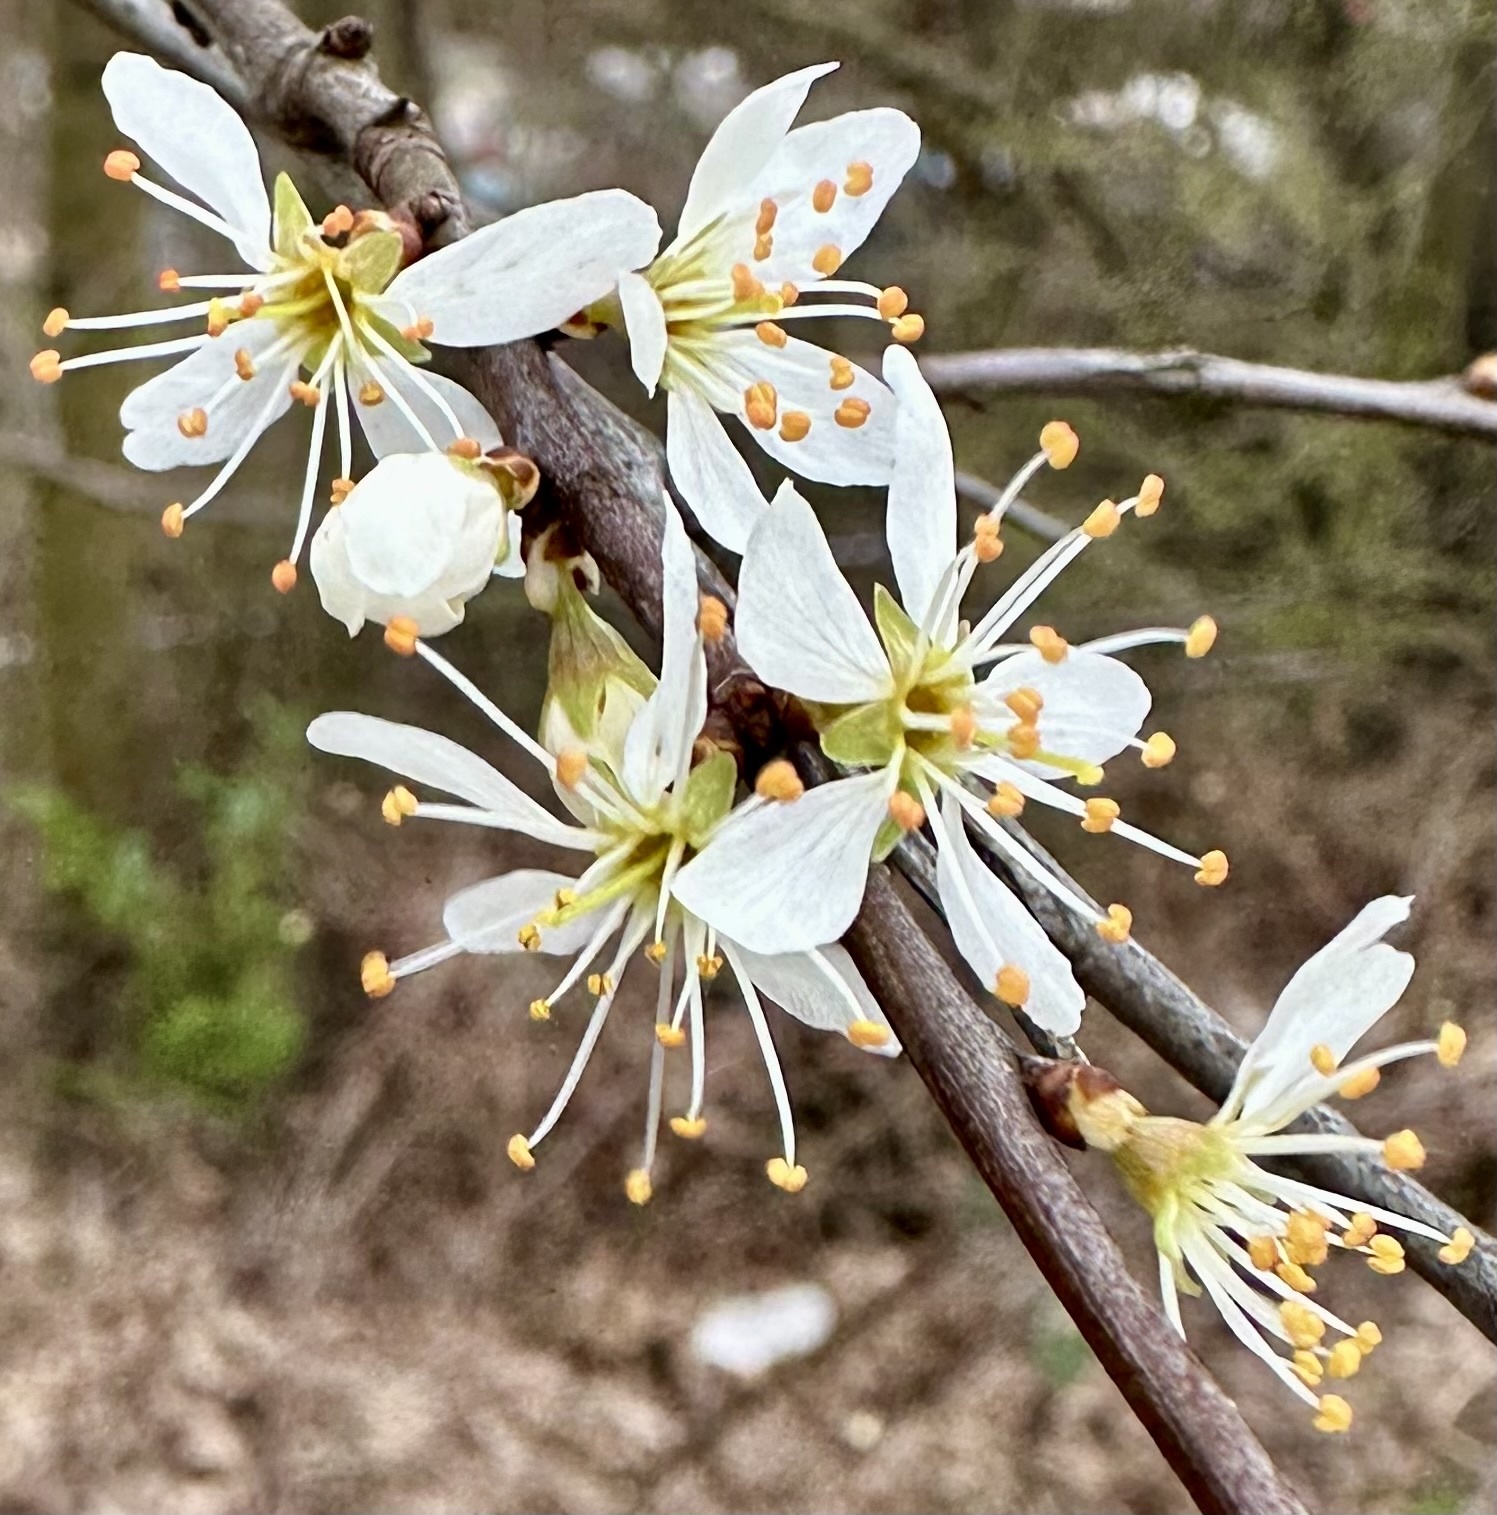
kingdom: Plantae
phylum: Tracheophyta
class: Magnoliopsida
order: Rosales
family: Rosaceae
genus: Prunus
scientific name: Prunus spinosa
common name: Blackthorn
